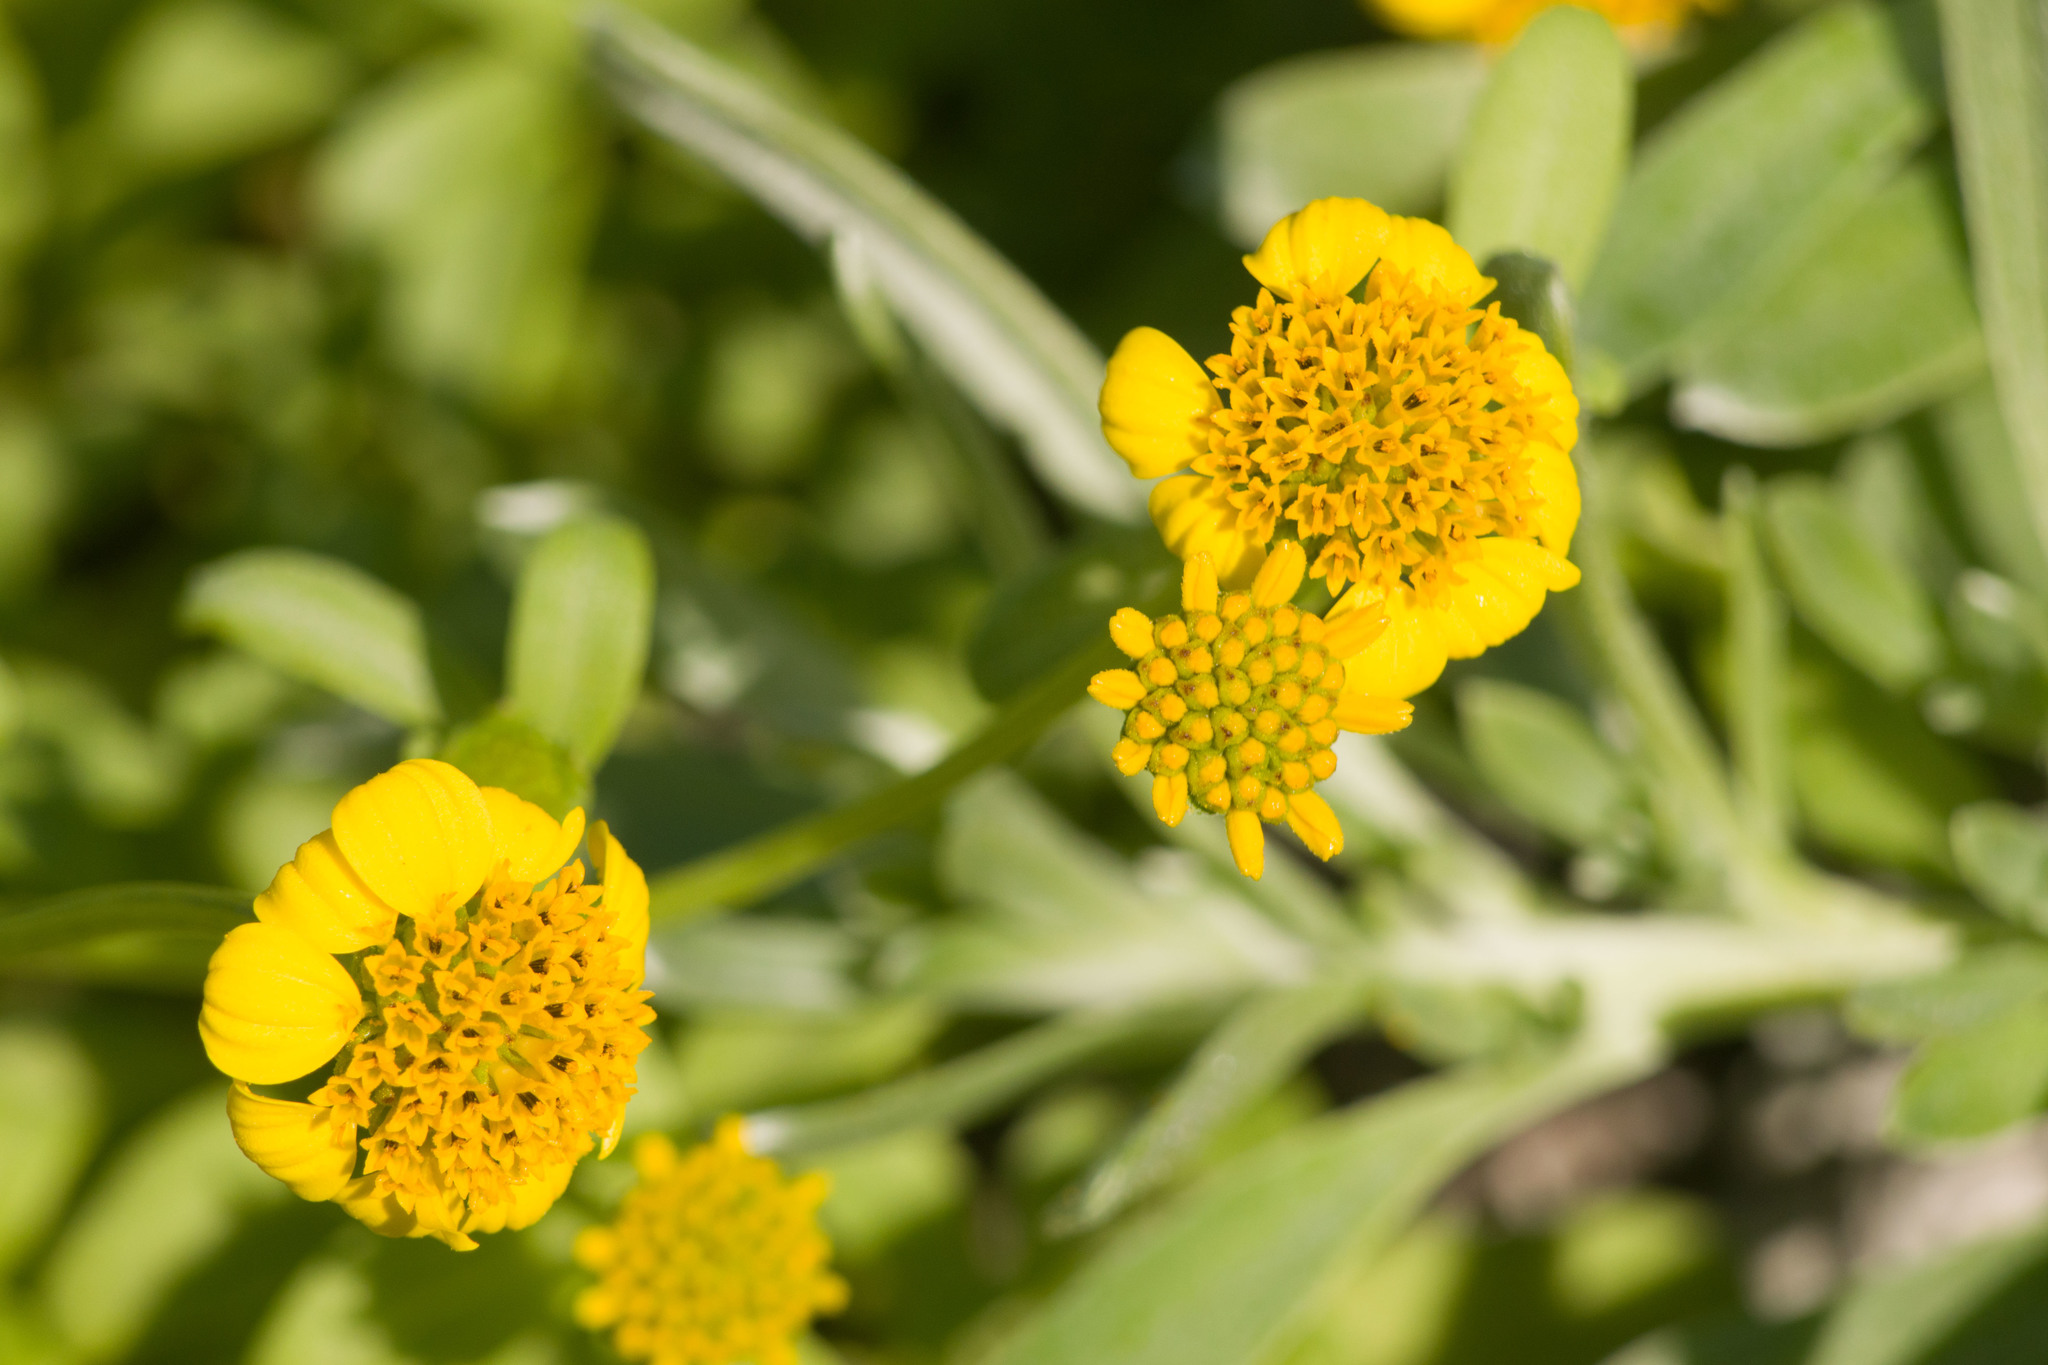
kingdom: Plantae
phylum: Tracheophyta
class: Magnoliopsida
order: Asterales
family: Asteraceae
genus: Lipochaeta
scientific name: Lipochaeta integrifolia
